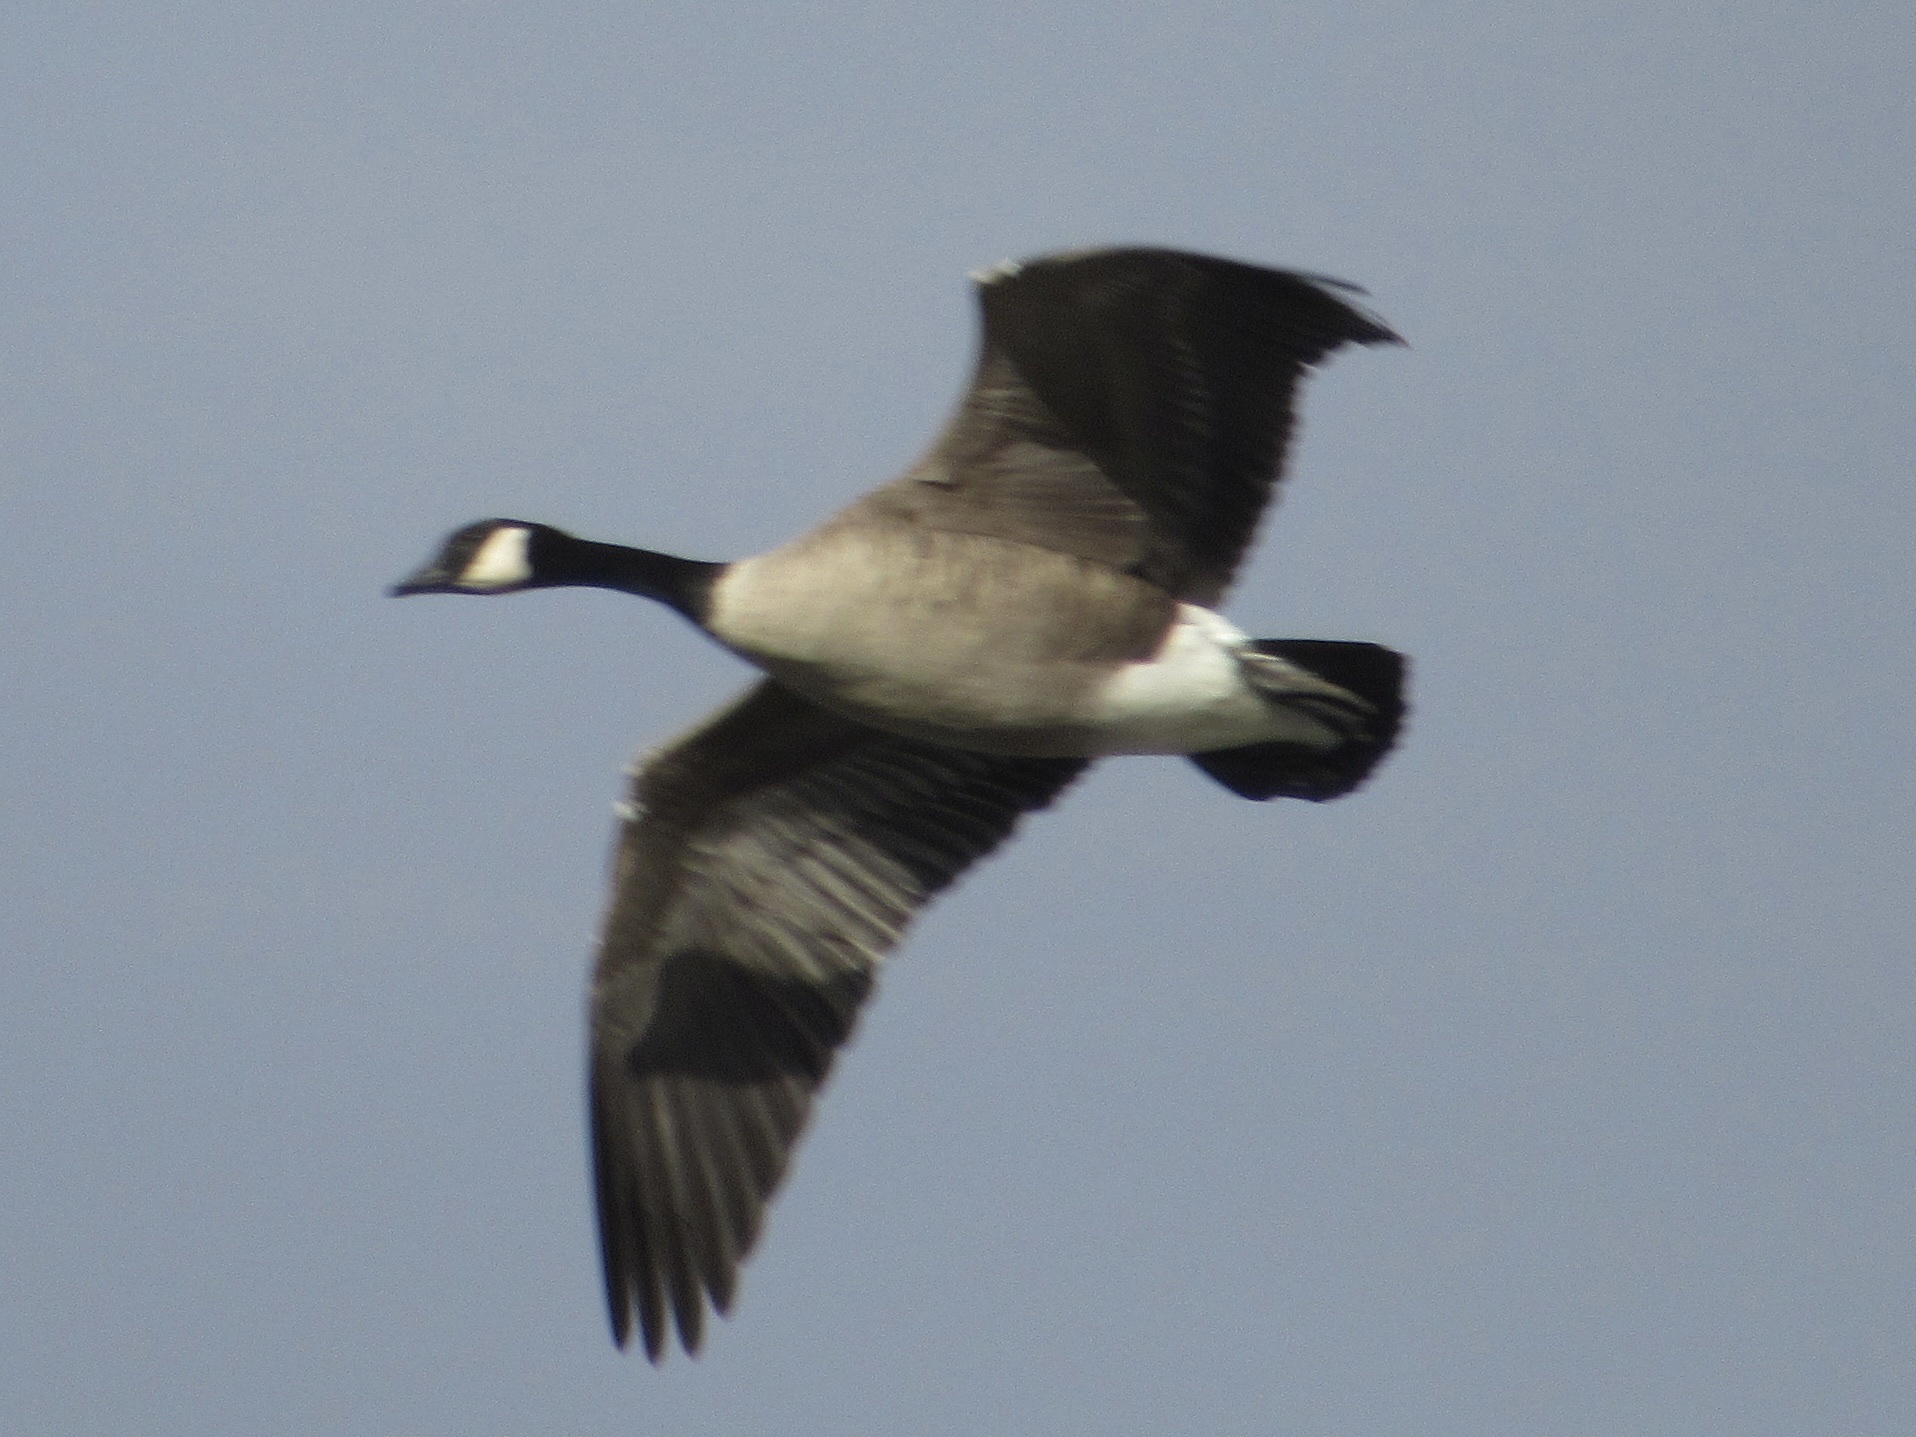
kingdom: Animalia
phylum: Chordata
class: Aves
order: Anseriformes
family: Anatidae
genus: Branta
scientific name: Branta canadensis
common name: Canada goose
